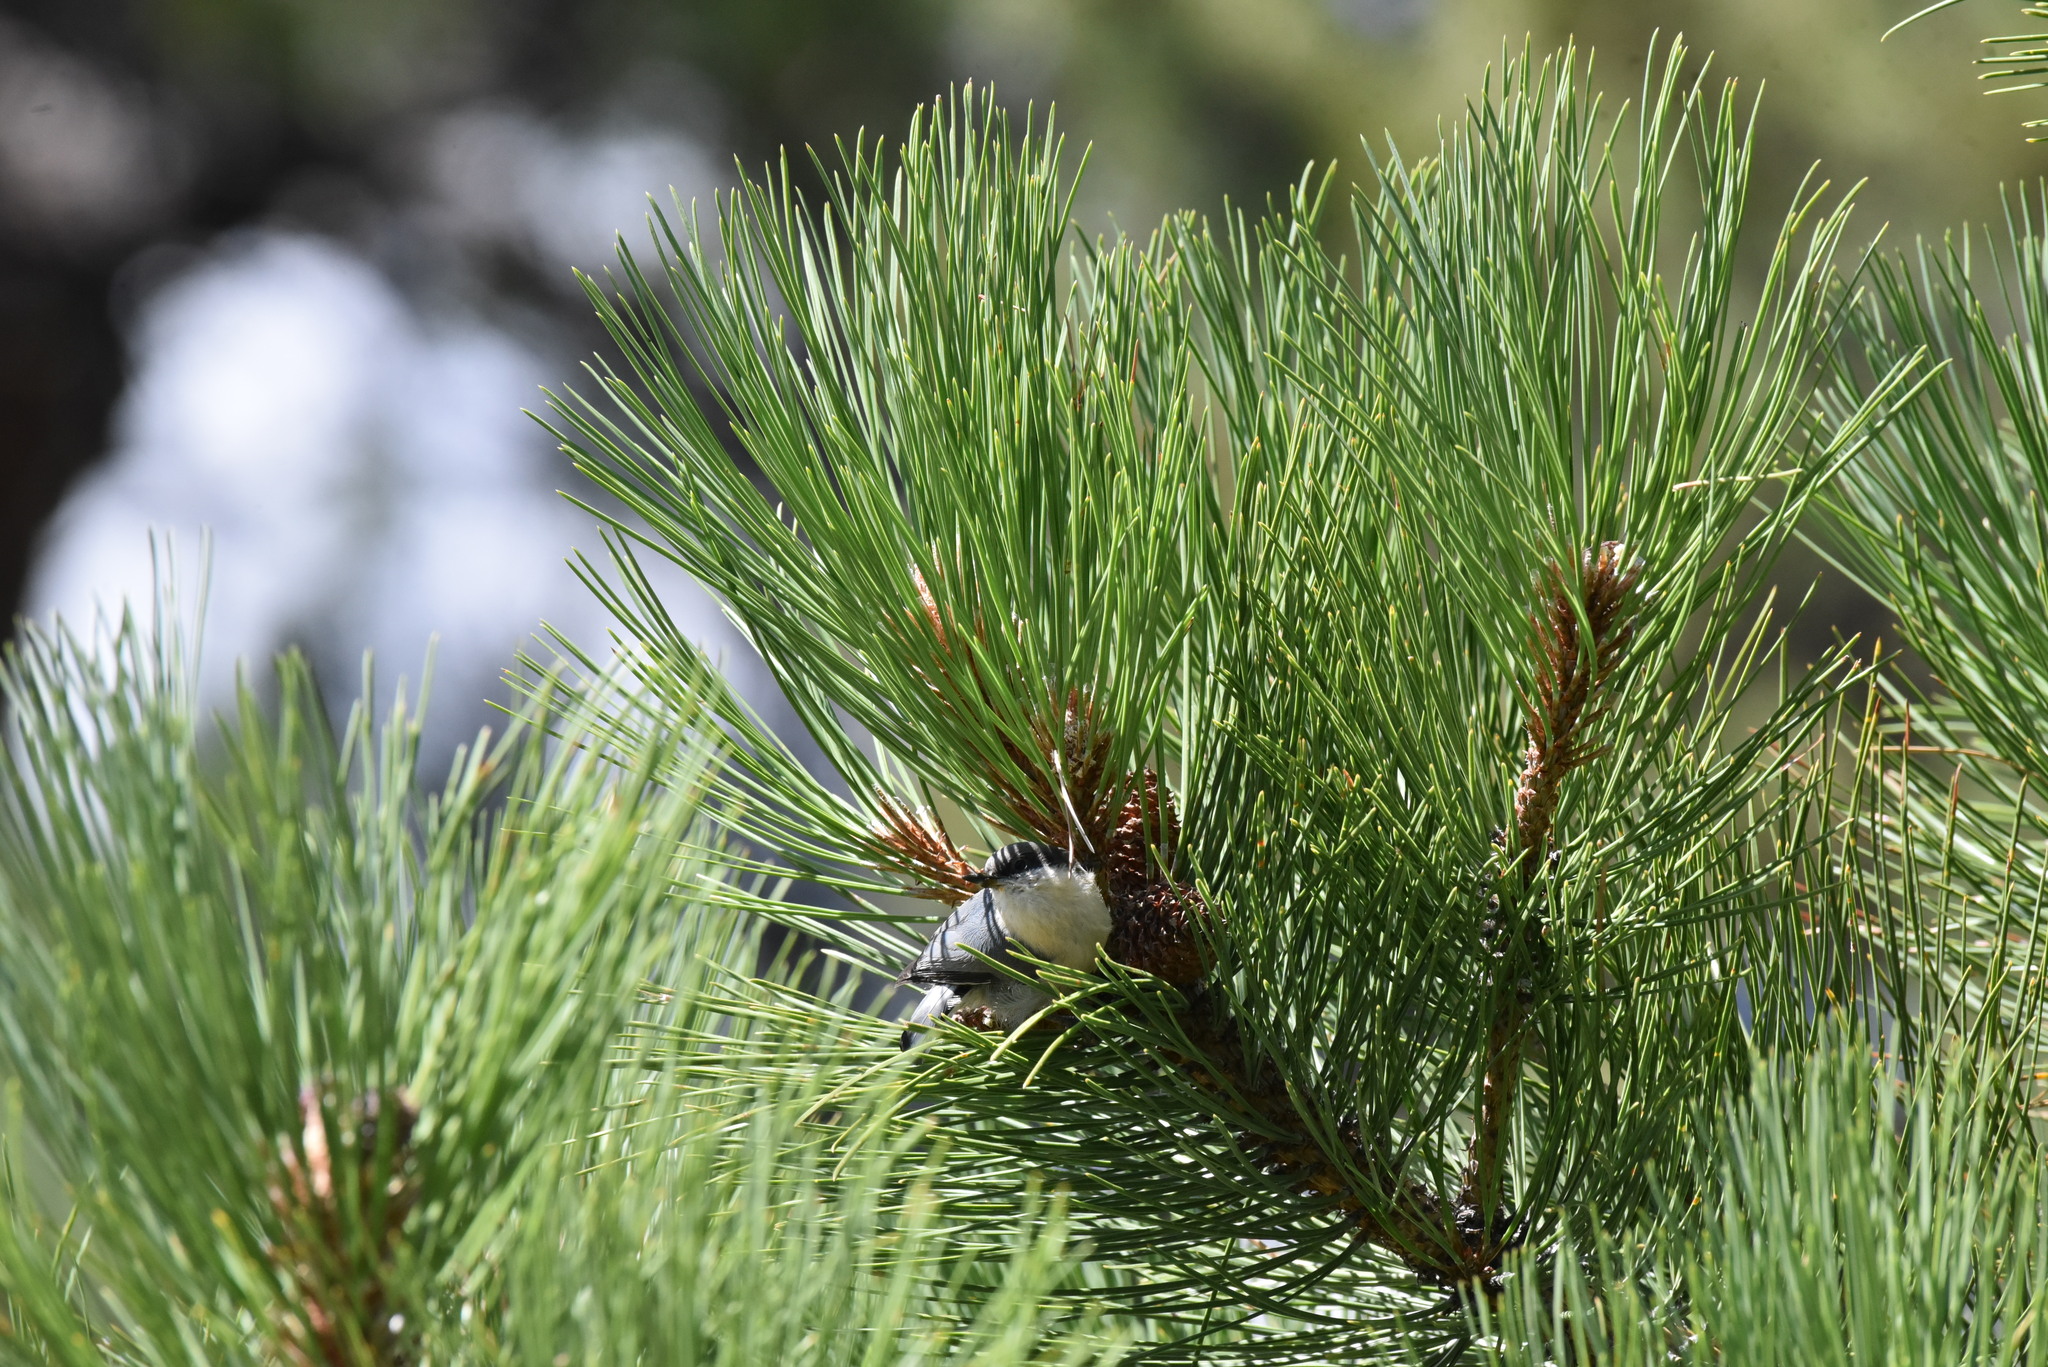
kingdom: Animalia
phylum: Chordata
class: Aves
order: Passeriformes
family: Sittidae
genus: Sitta
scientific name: Sitta pygmaea
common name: Pygmy nuthatch
